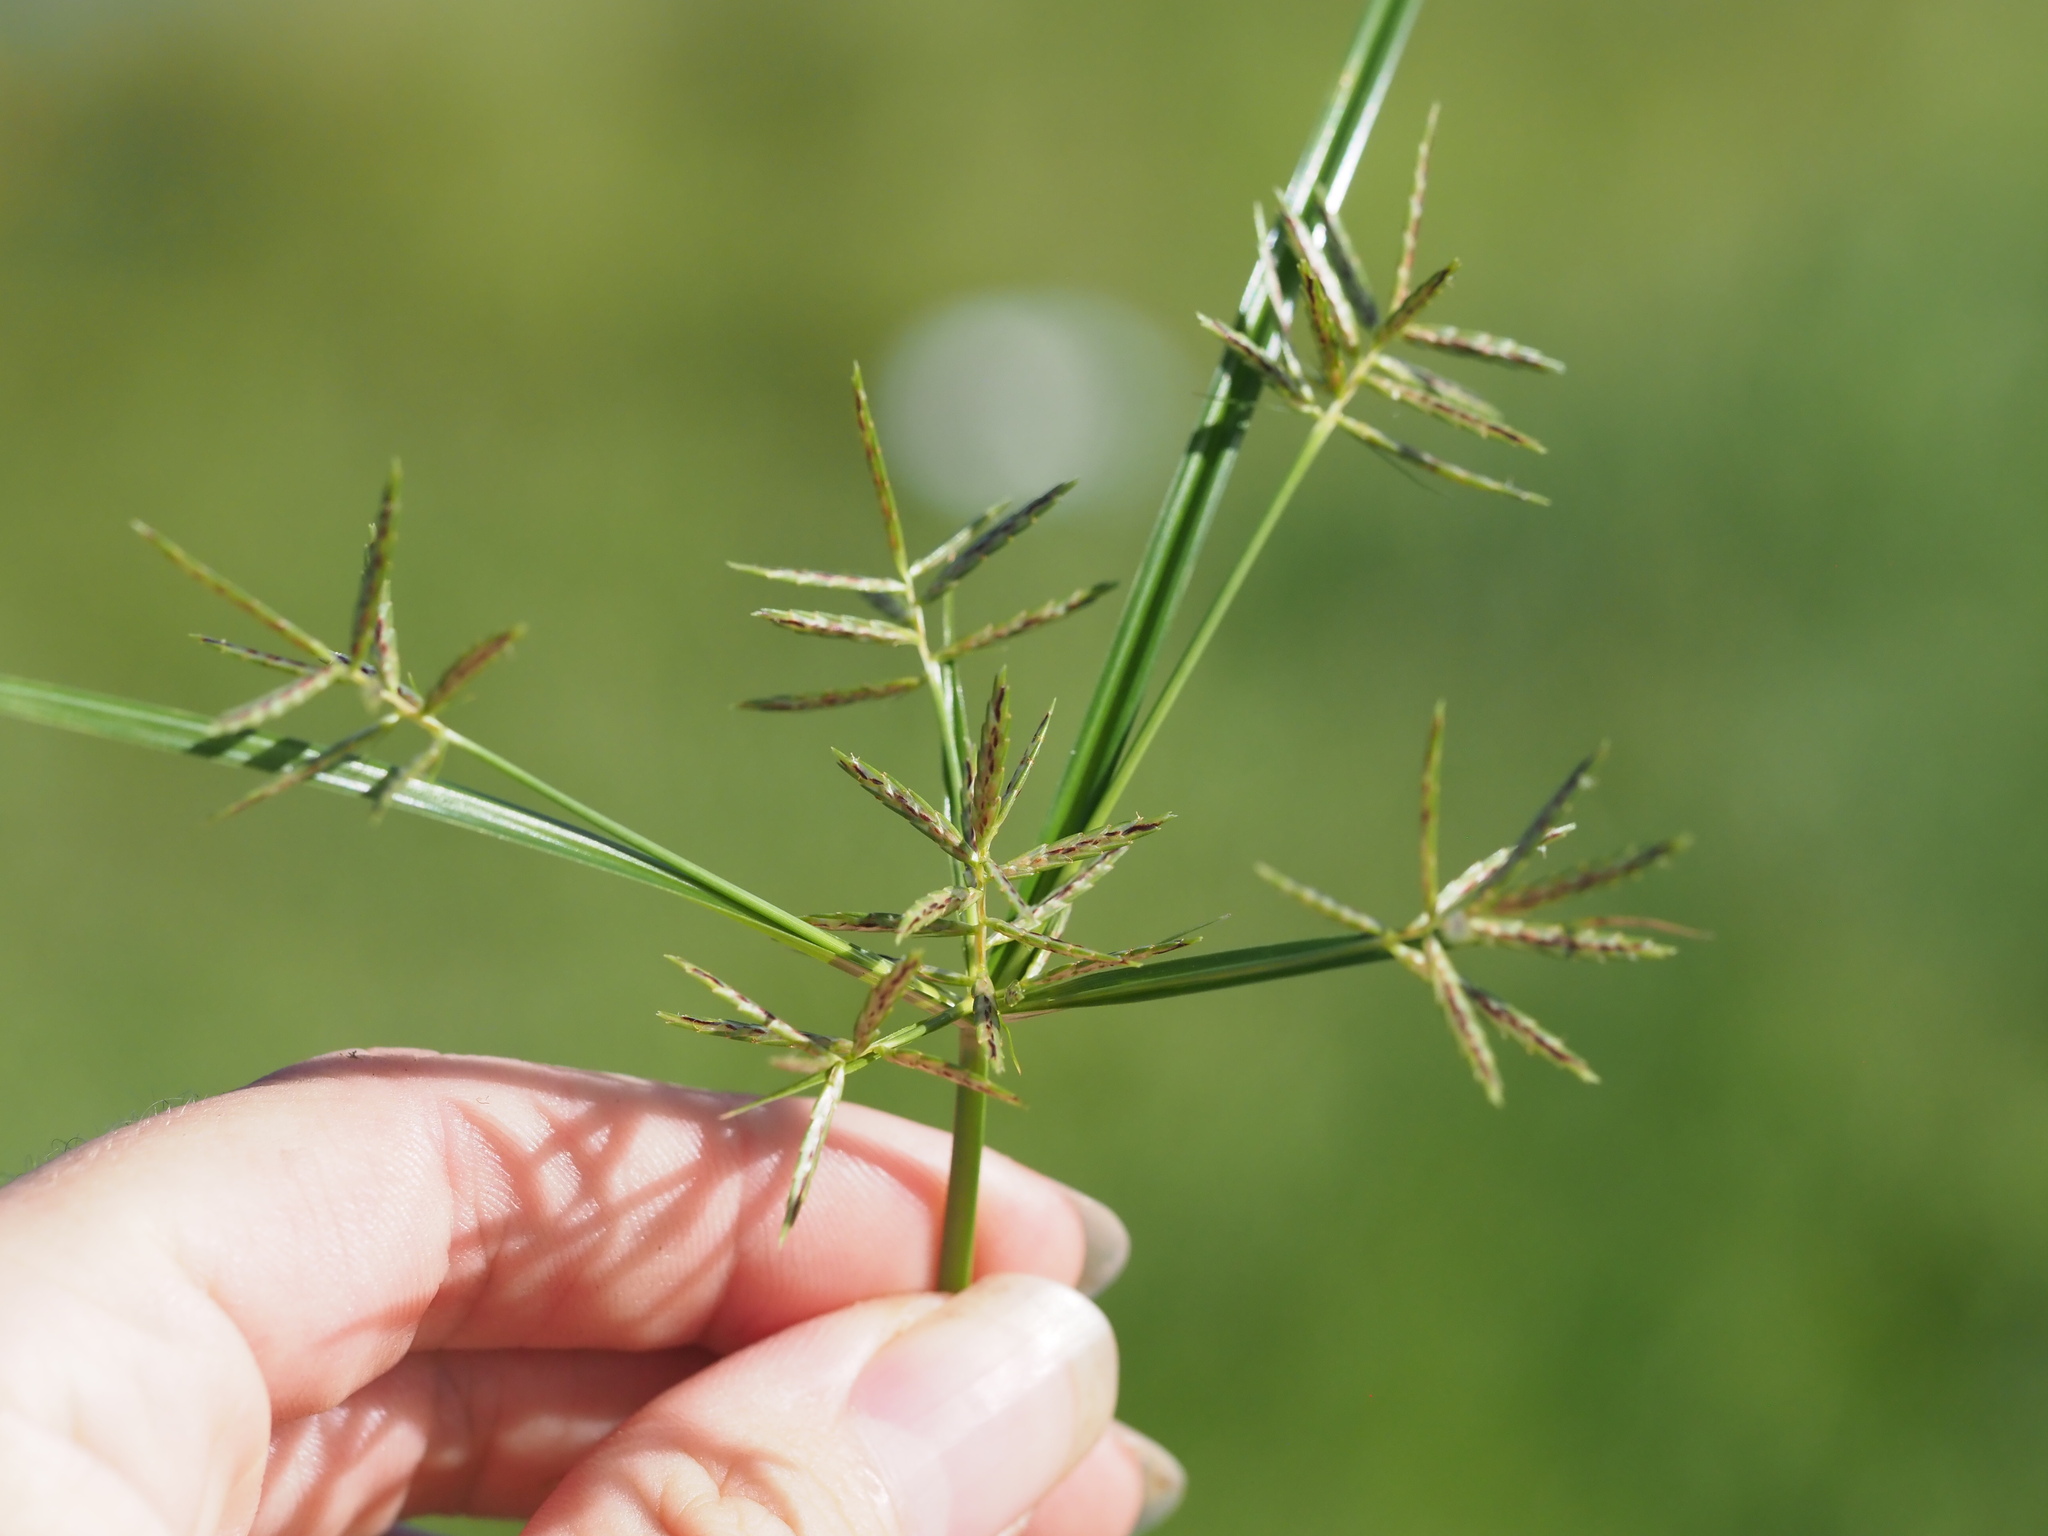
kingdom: Plantae
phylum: Tracheophyta
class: Liliopsida
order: Poales
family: Cyperaceae
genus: Cyperus
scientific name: Cyperus sphacelatus
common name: Roadside flatsedge
